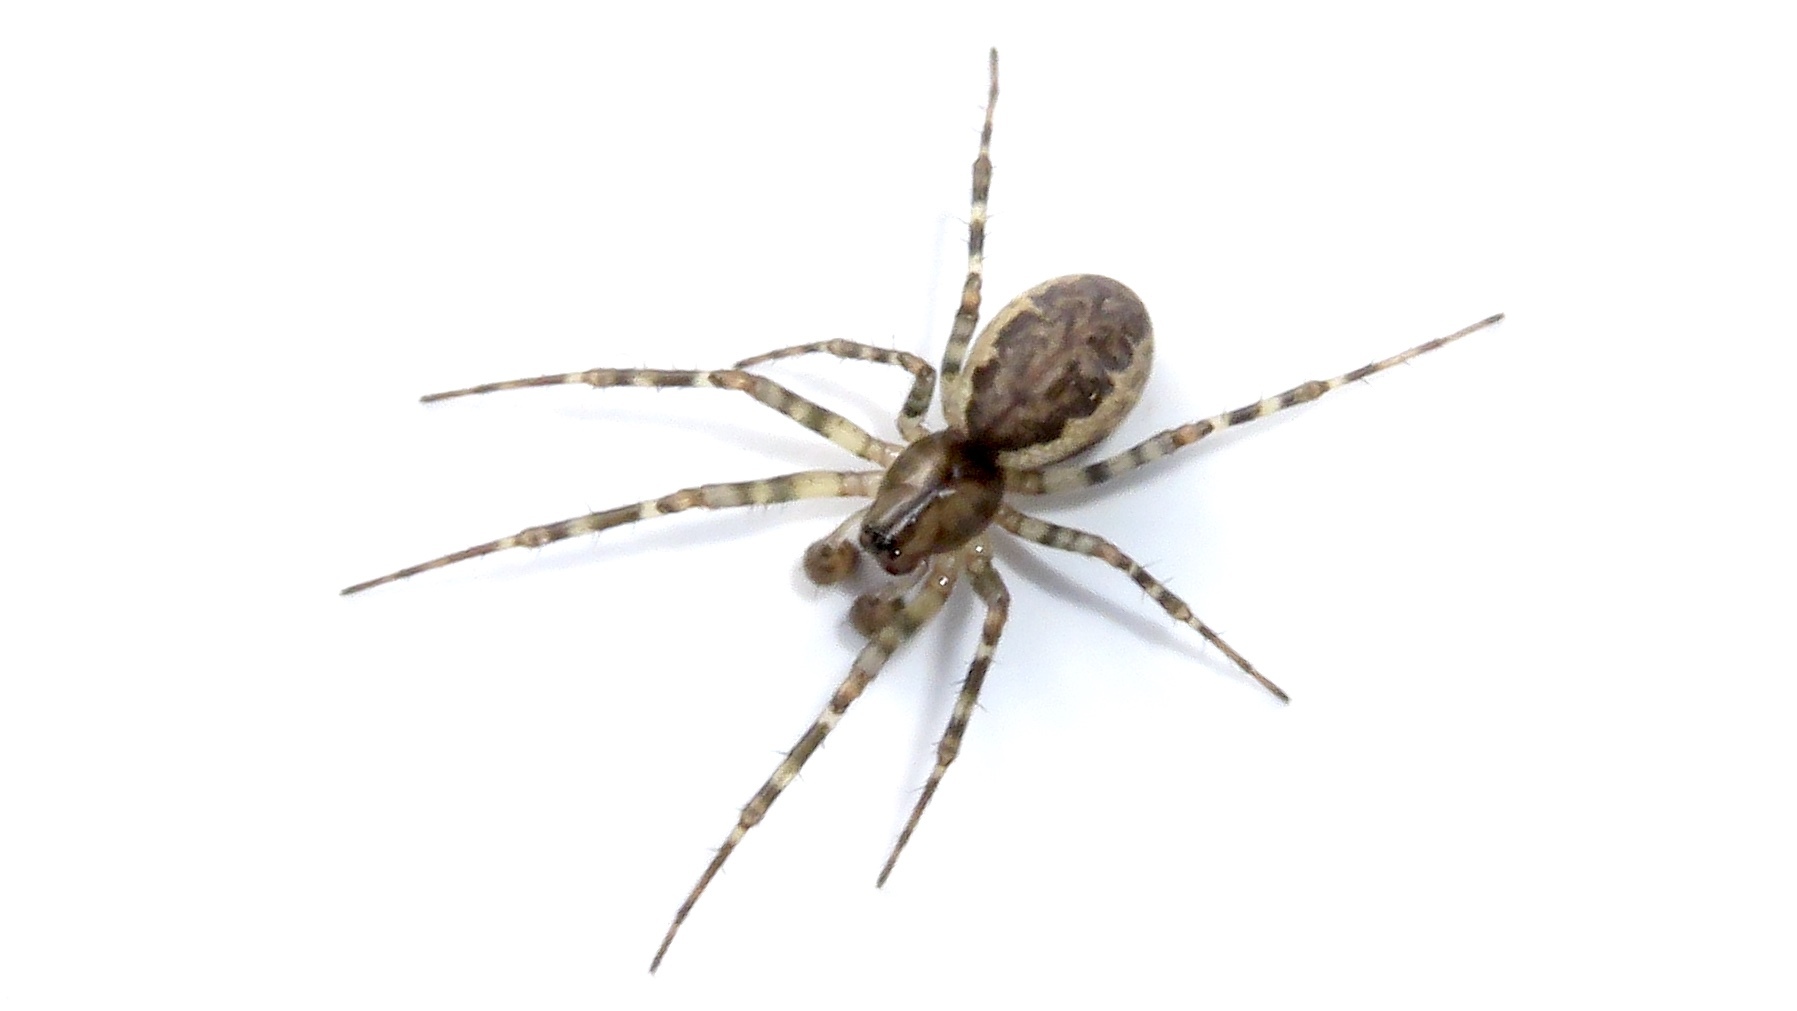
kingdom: Animalia
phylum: Arthropoda
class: Arachnida
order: Araneae
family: Linyphiidae
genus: Neriene
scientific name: Neriene montana
